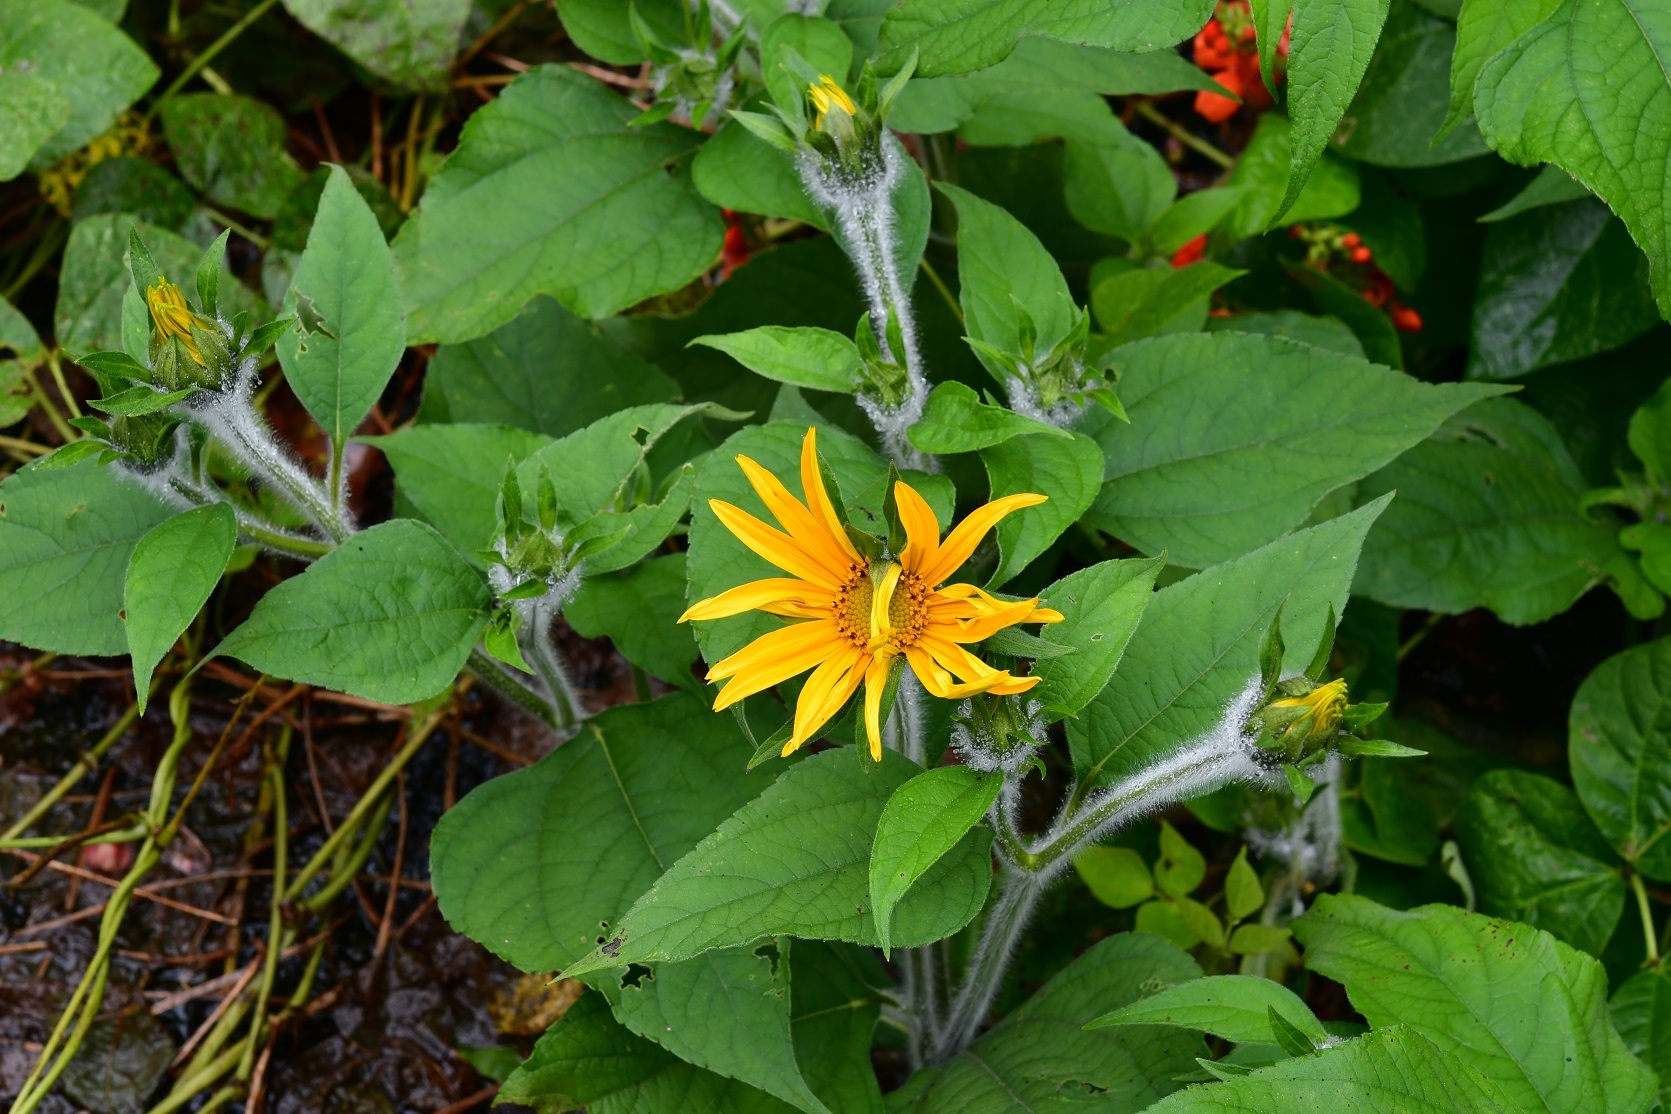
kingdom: Plantae
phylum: Tracheophyta
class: Magnoliopsida
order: Asterales
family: Asteraceae
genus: Tithonia
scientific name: Tithonia tubaeformis
